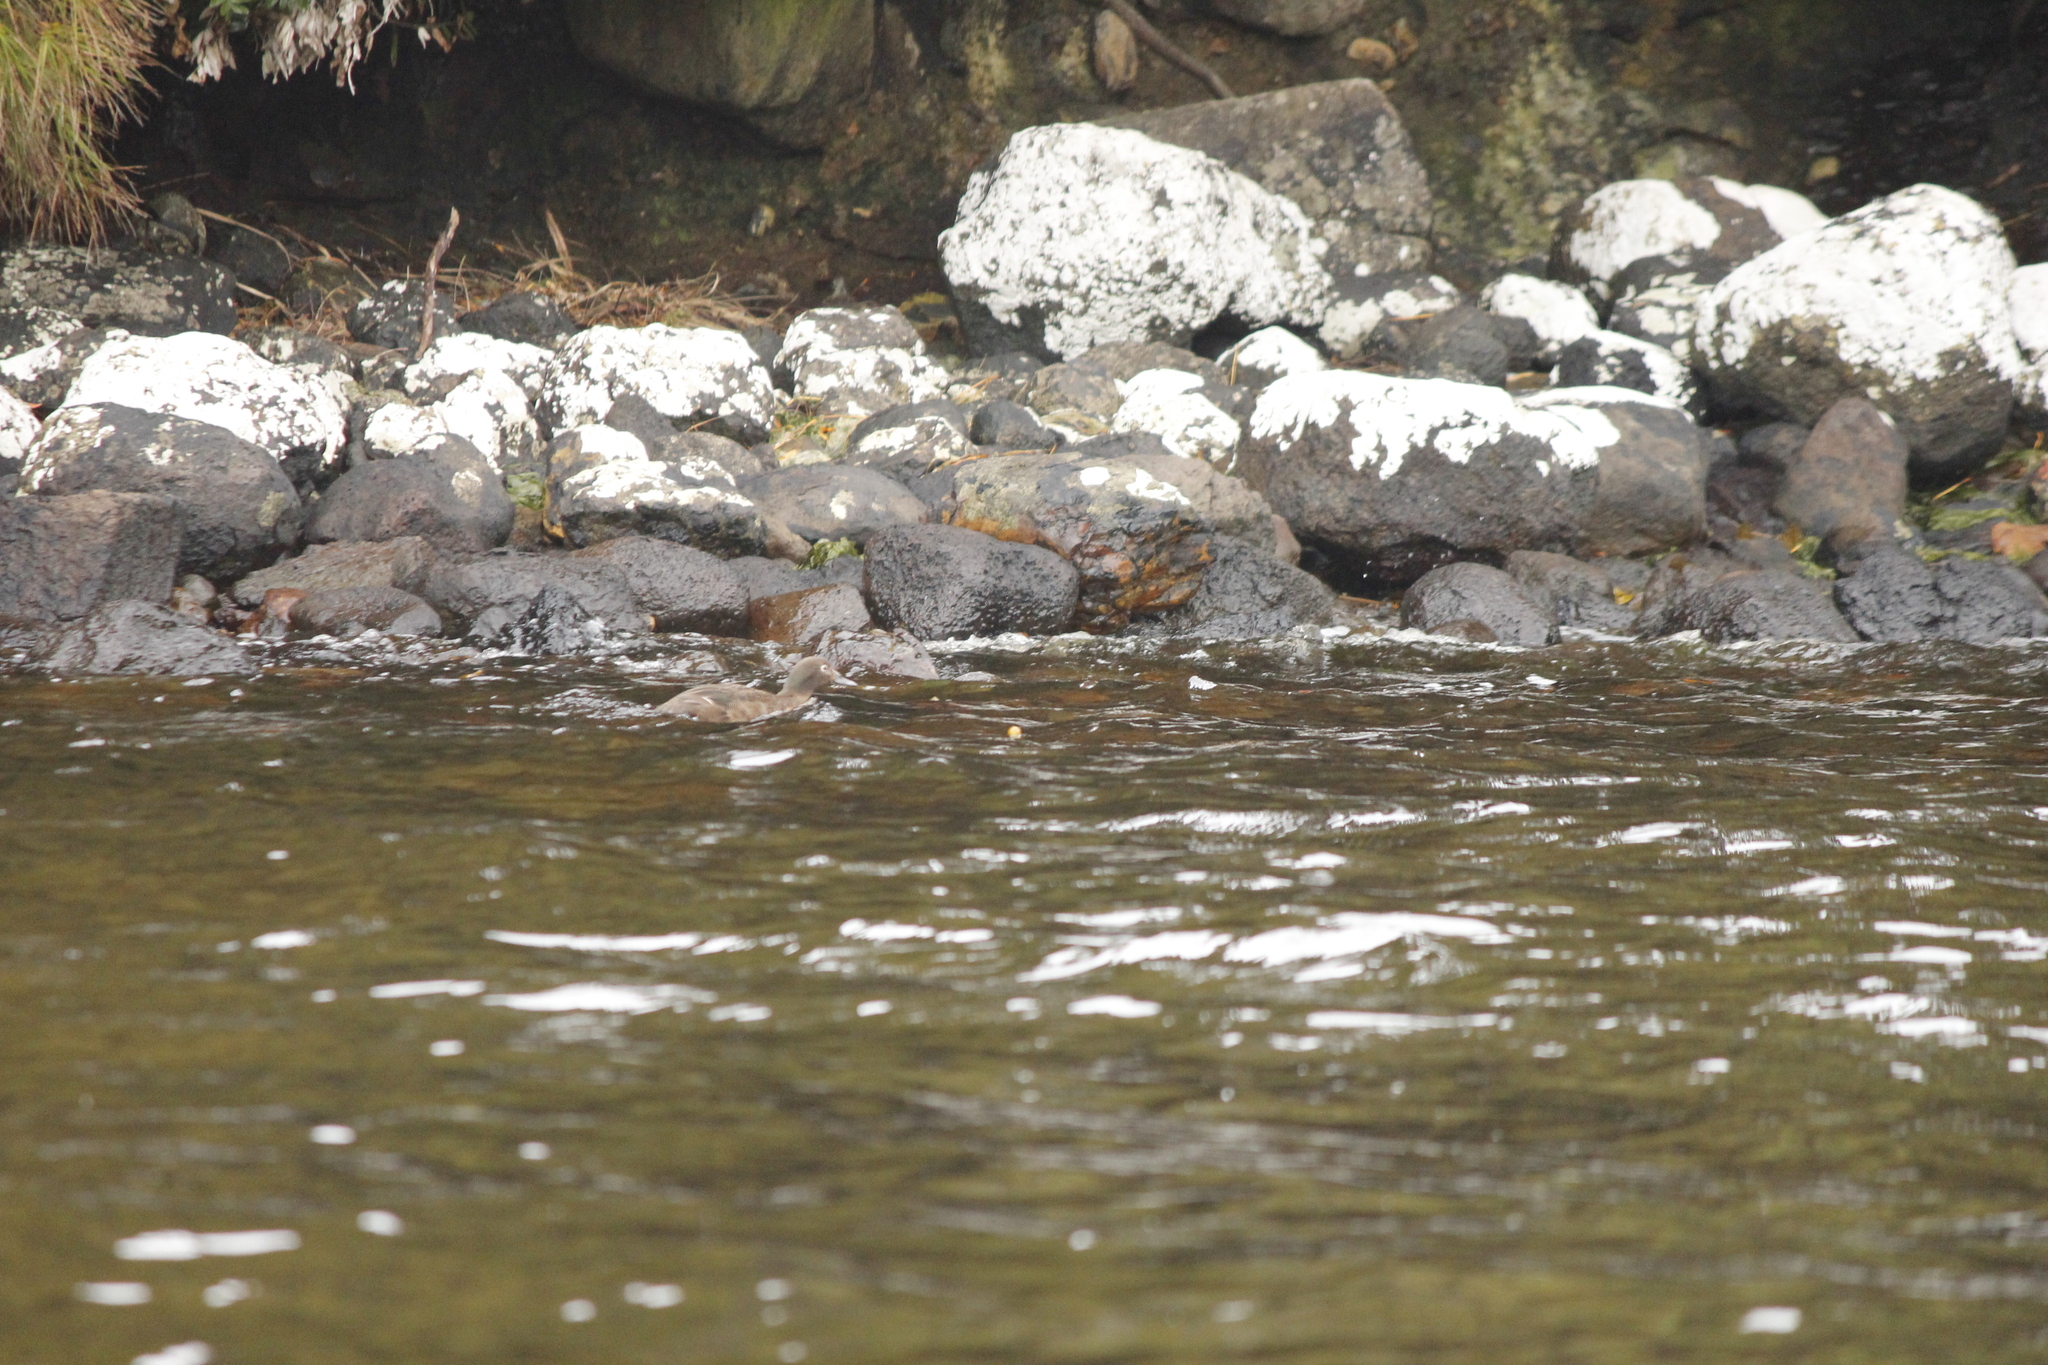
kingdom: Animalia
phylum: Chordata
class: Aves
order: Anseriformes
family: Anatidae
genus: Anas
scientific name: Anas aucklandica
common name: Auckland teal
